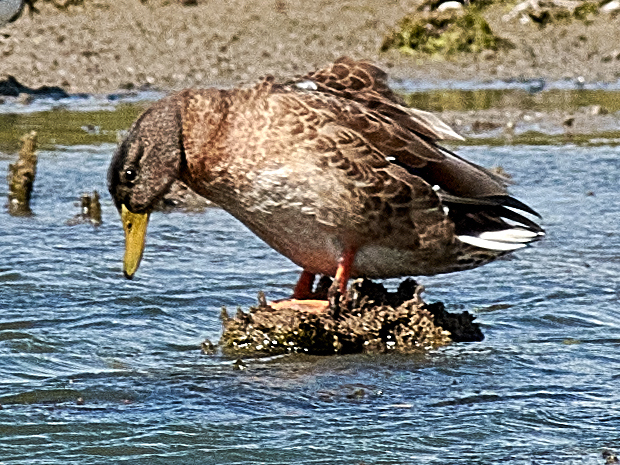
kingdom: Animalia
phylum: Chordata
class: Aves
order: Anseriformes
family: Anatidae
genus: Anas
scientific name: Anas platyrhynchos
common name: Mallard
